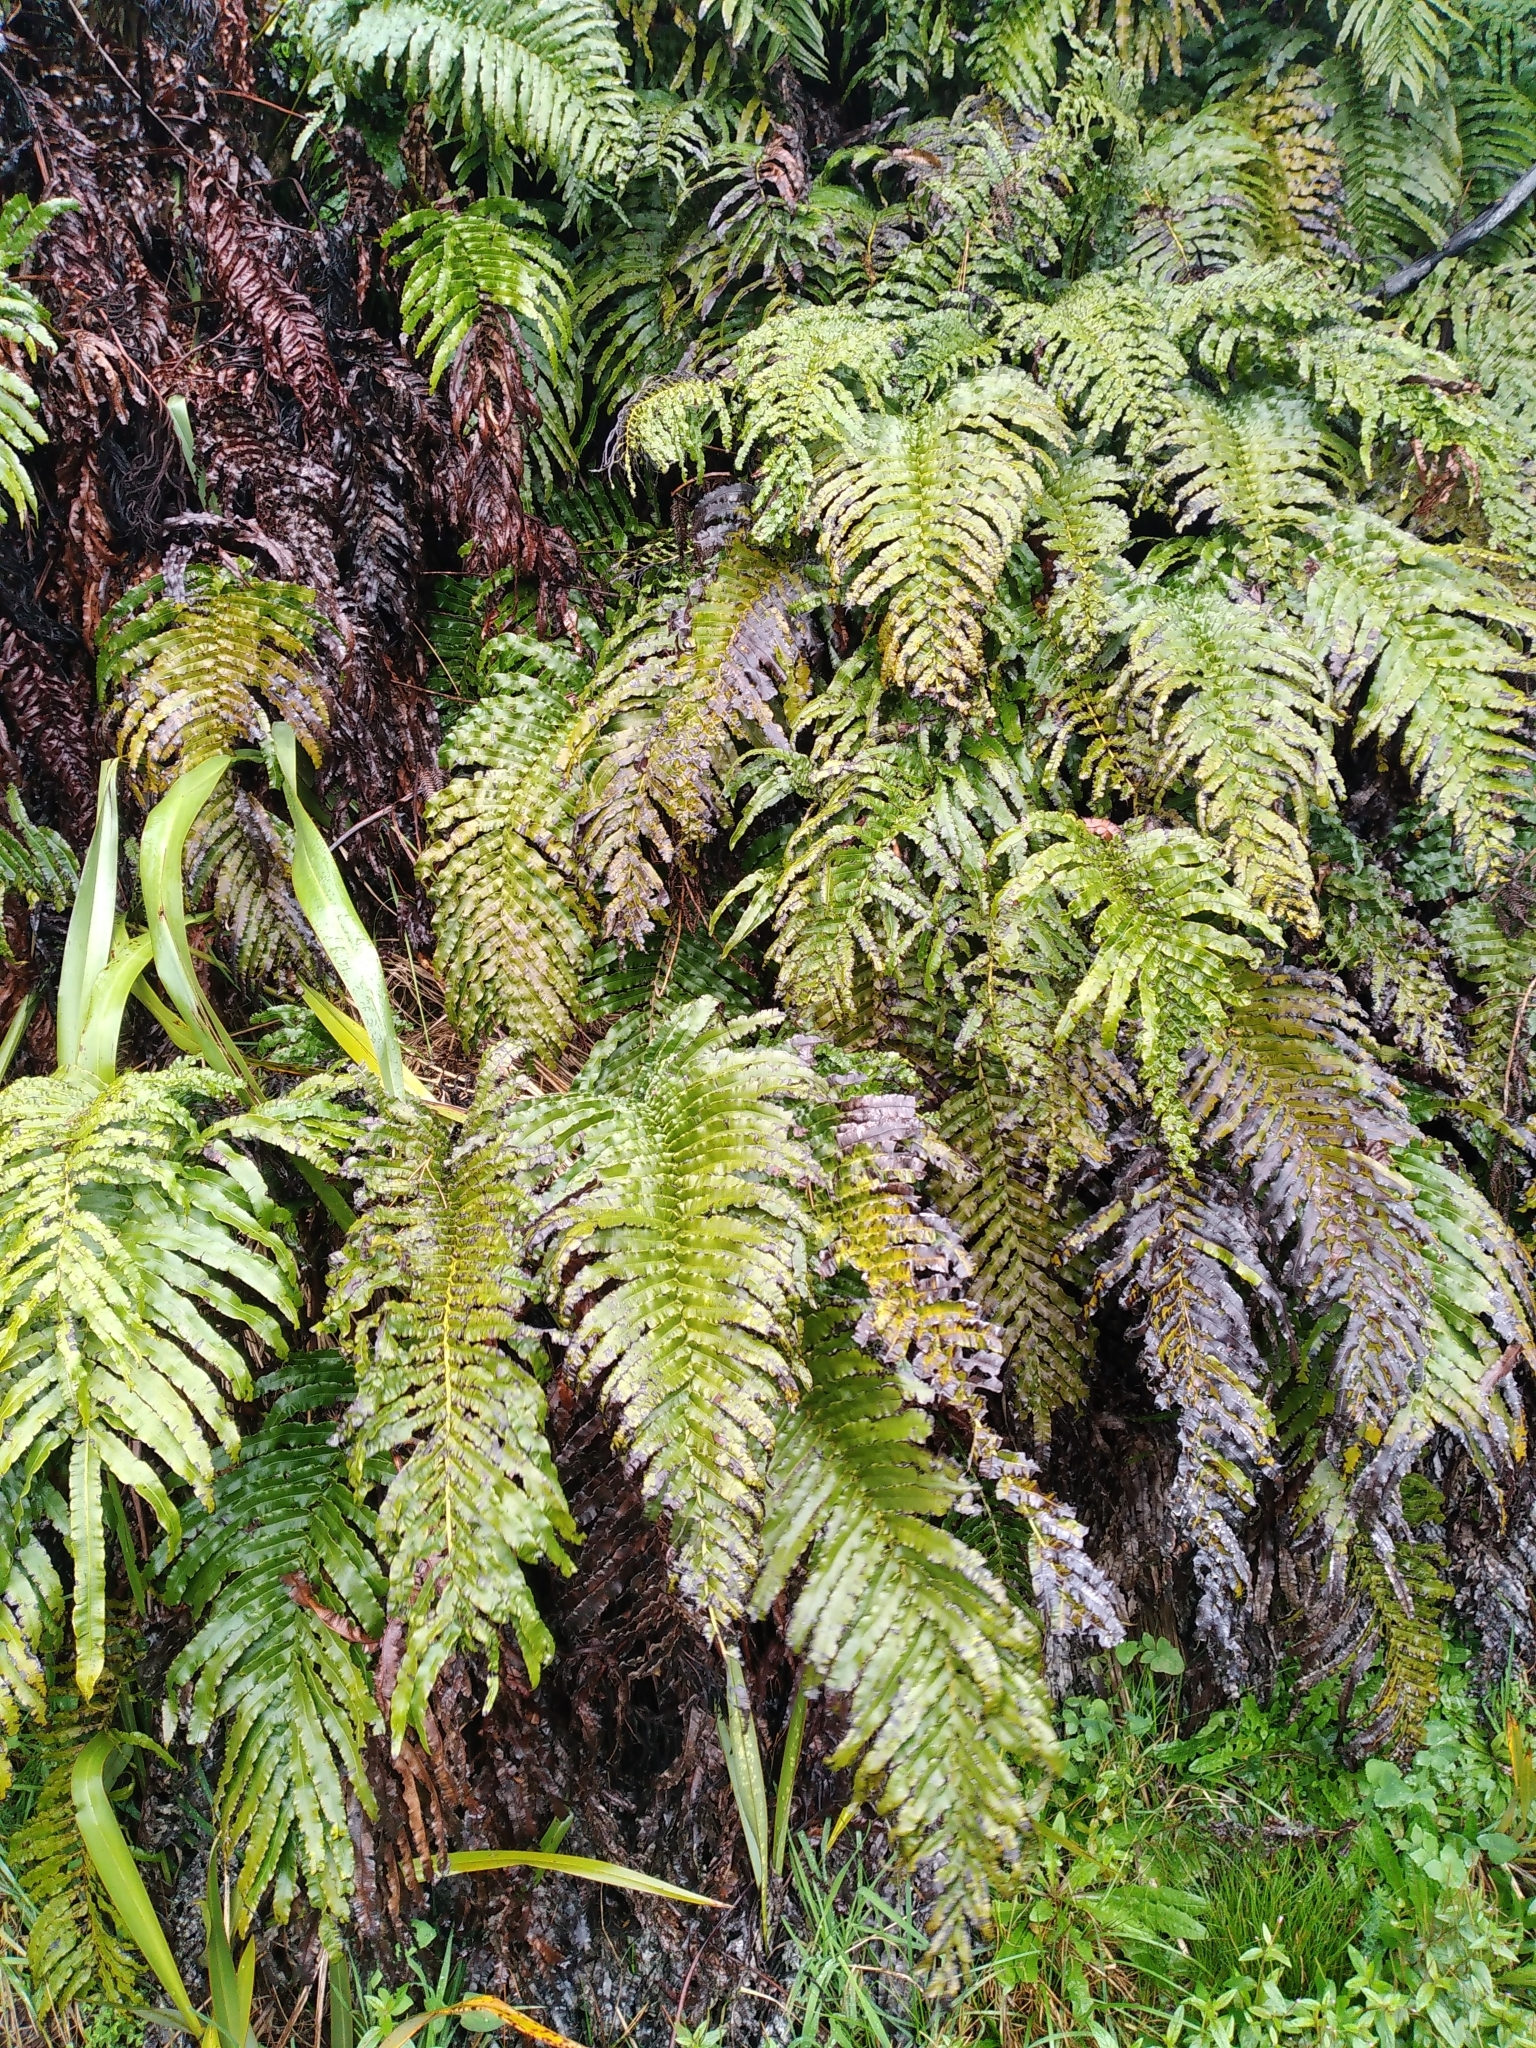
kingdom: Plantae
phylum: Tracheophyta
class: Polypodiopsida
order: Polypodiales
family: Blechnaceae
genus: Parablechnum
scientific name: Parablechnum triangularifolium
